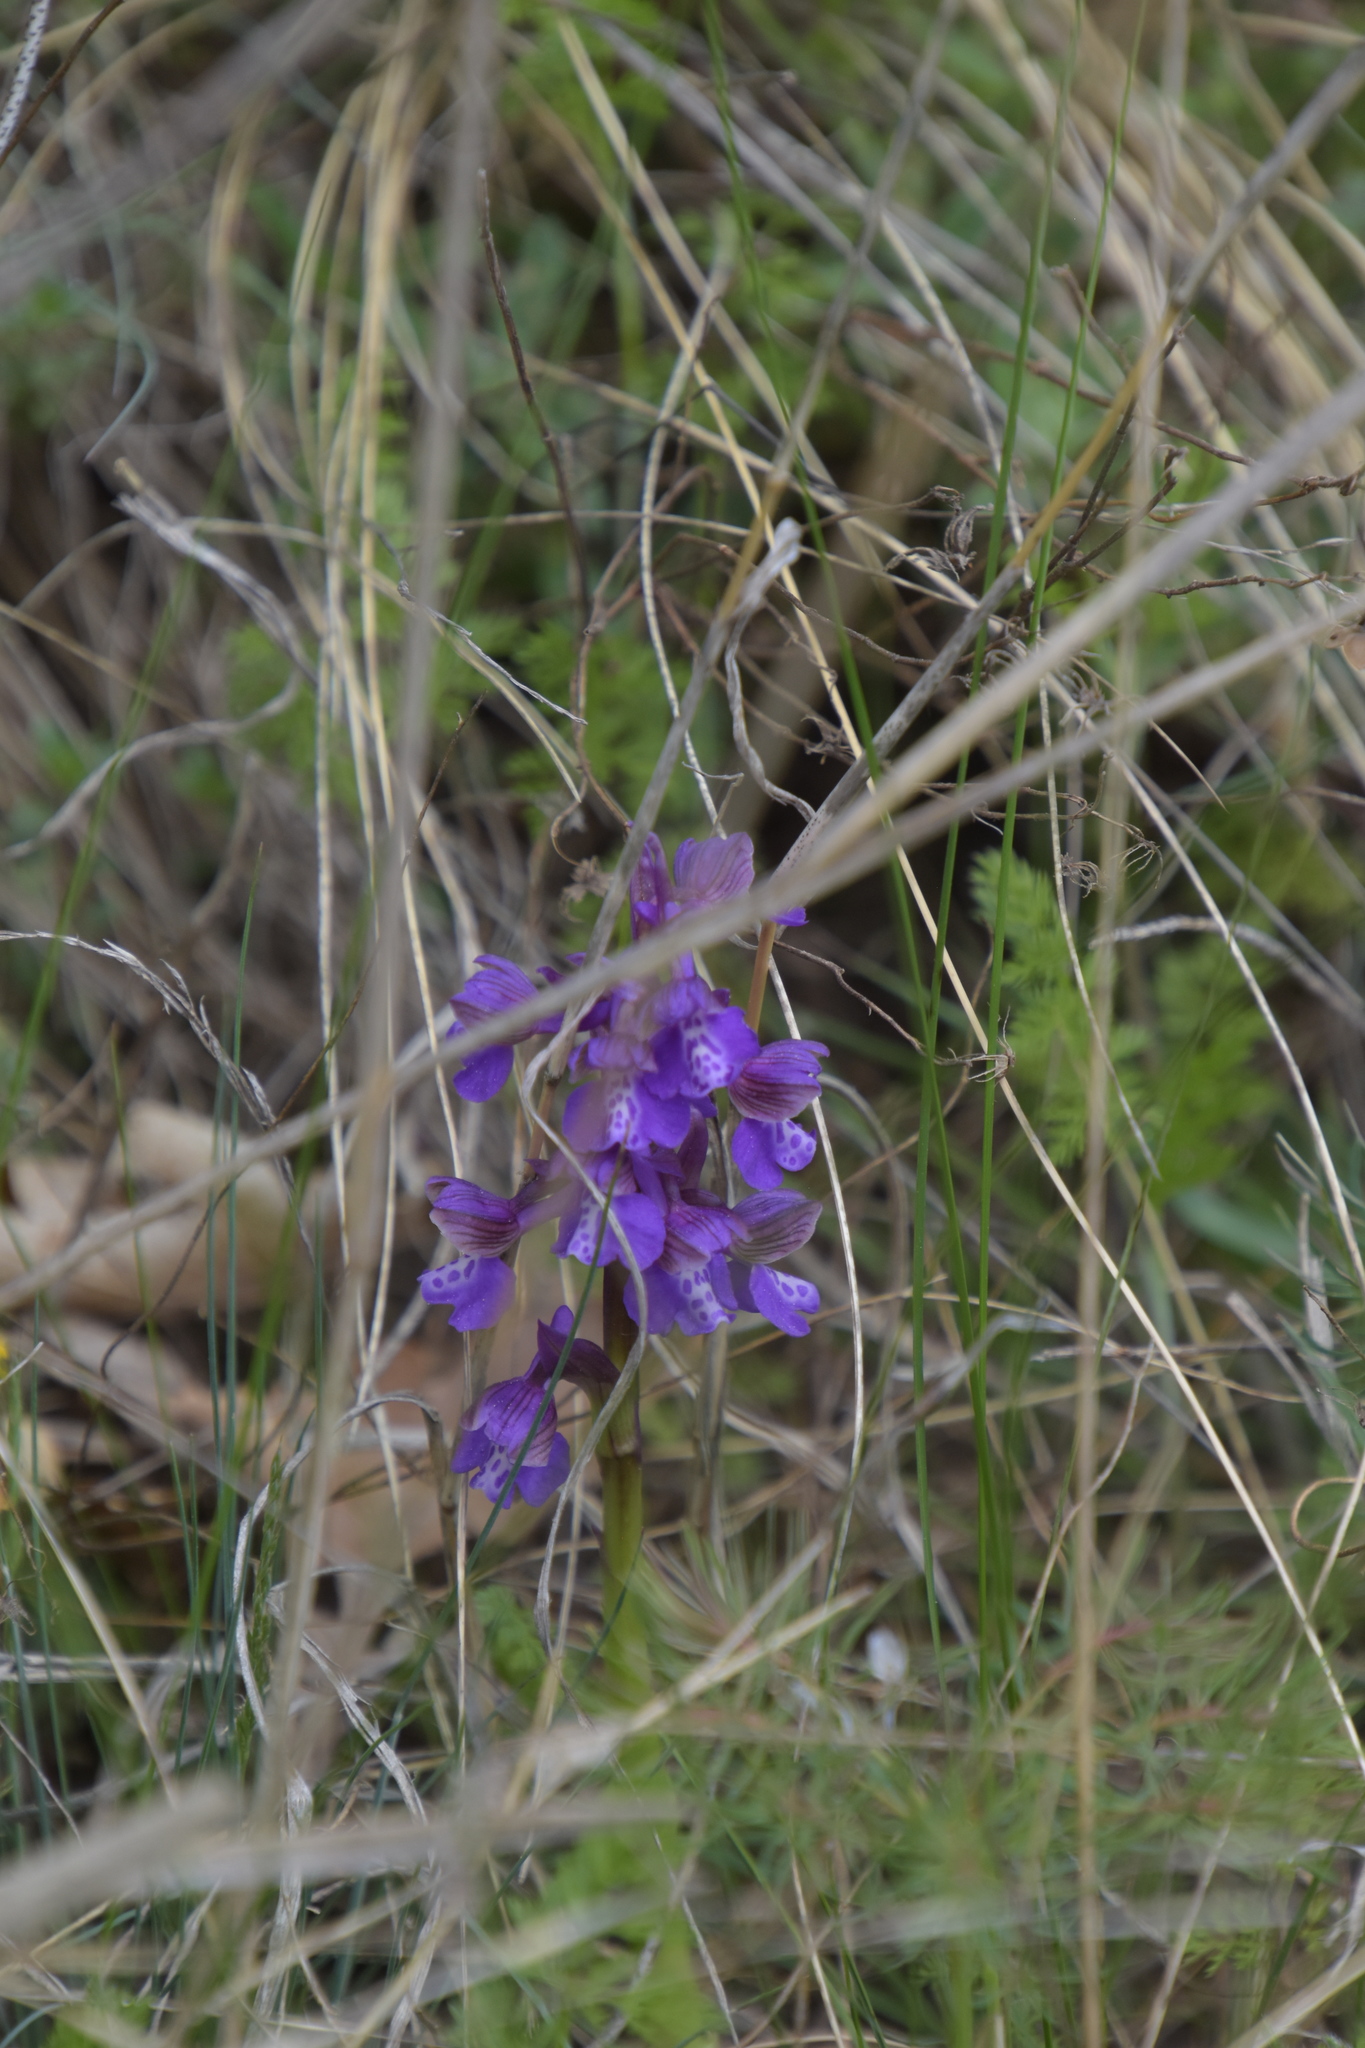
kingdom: Plantae
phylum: Tracheophyta
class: Liliopsida
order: Asparagales
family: Orchidaceae
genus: Anacamptis
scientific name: Anacamptis morio
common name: Green-winged orchid
